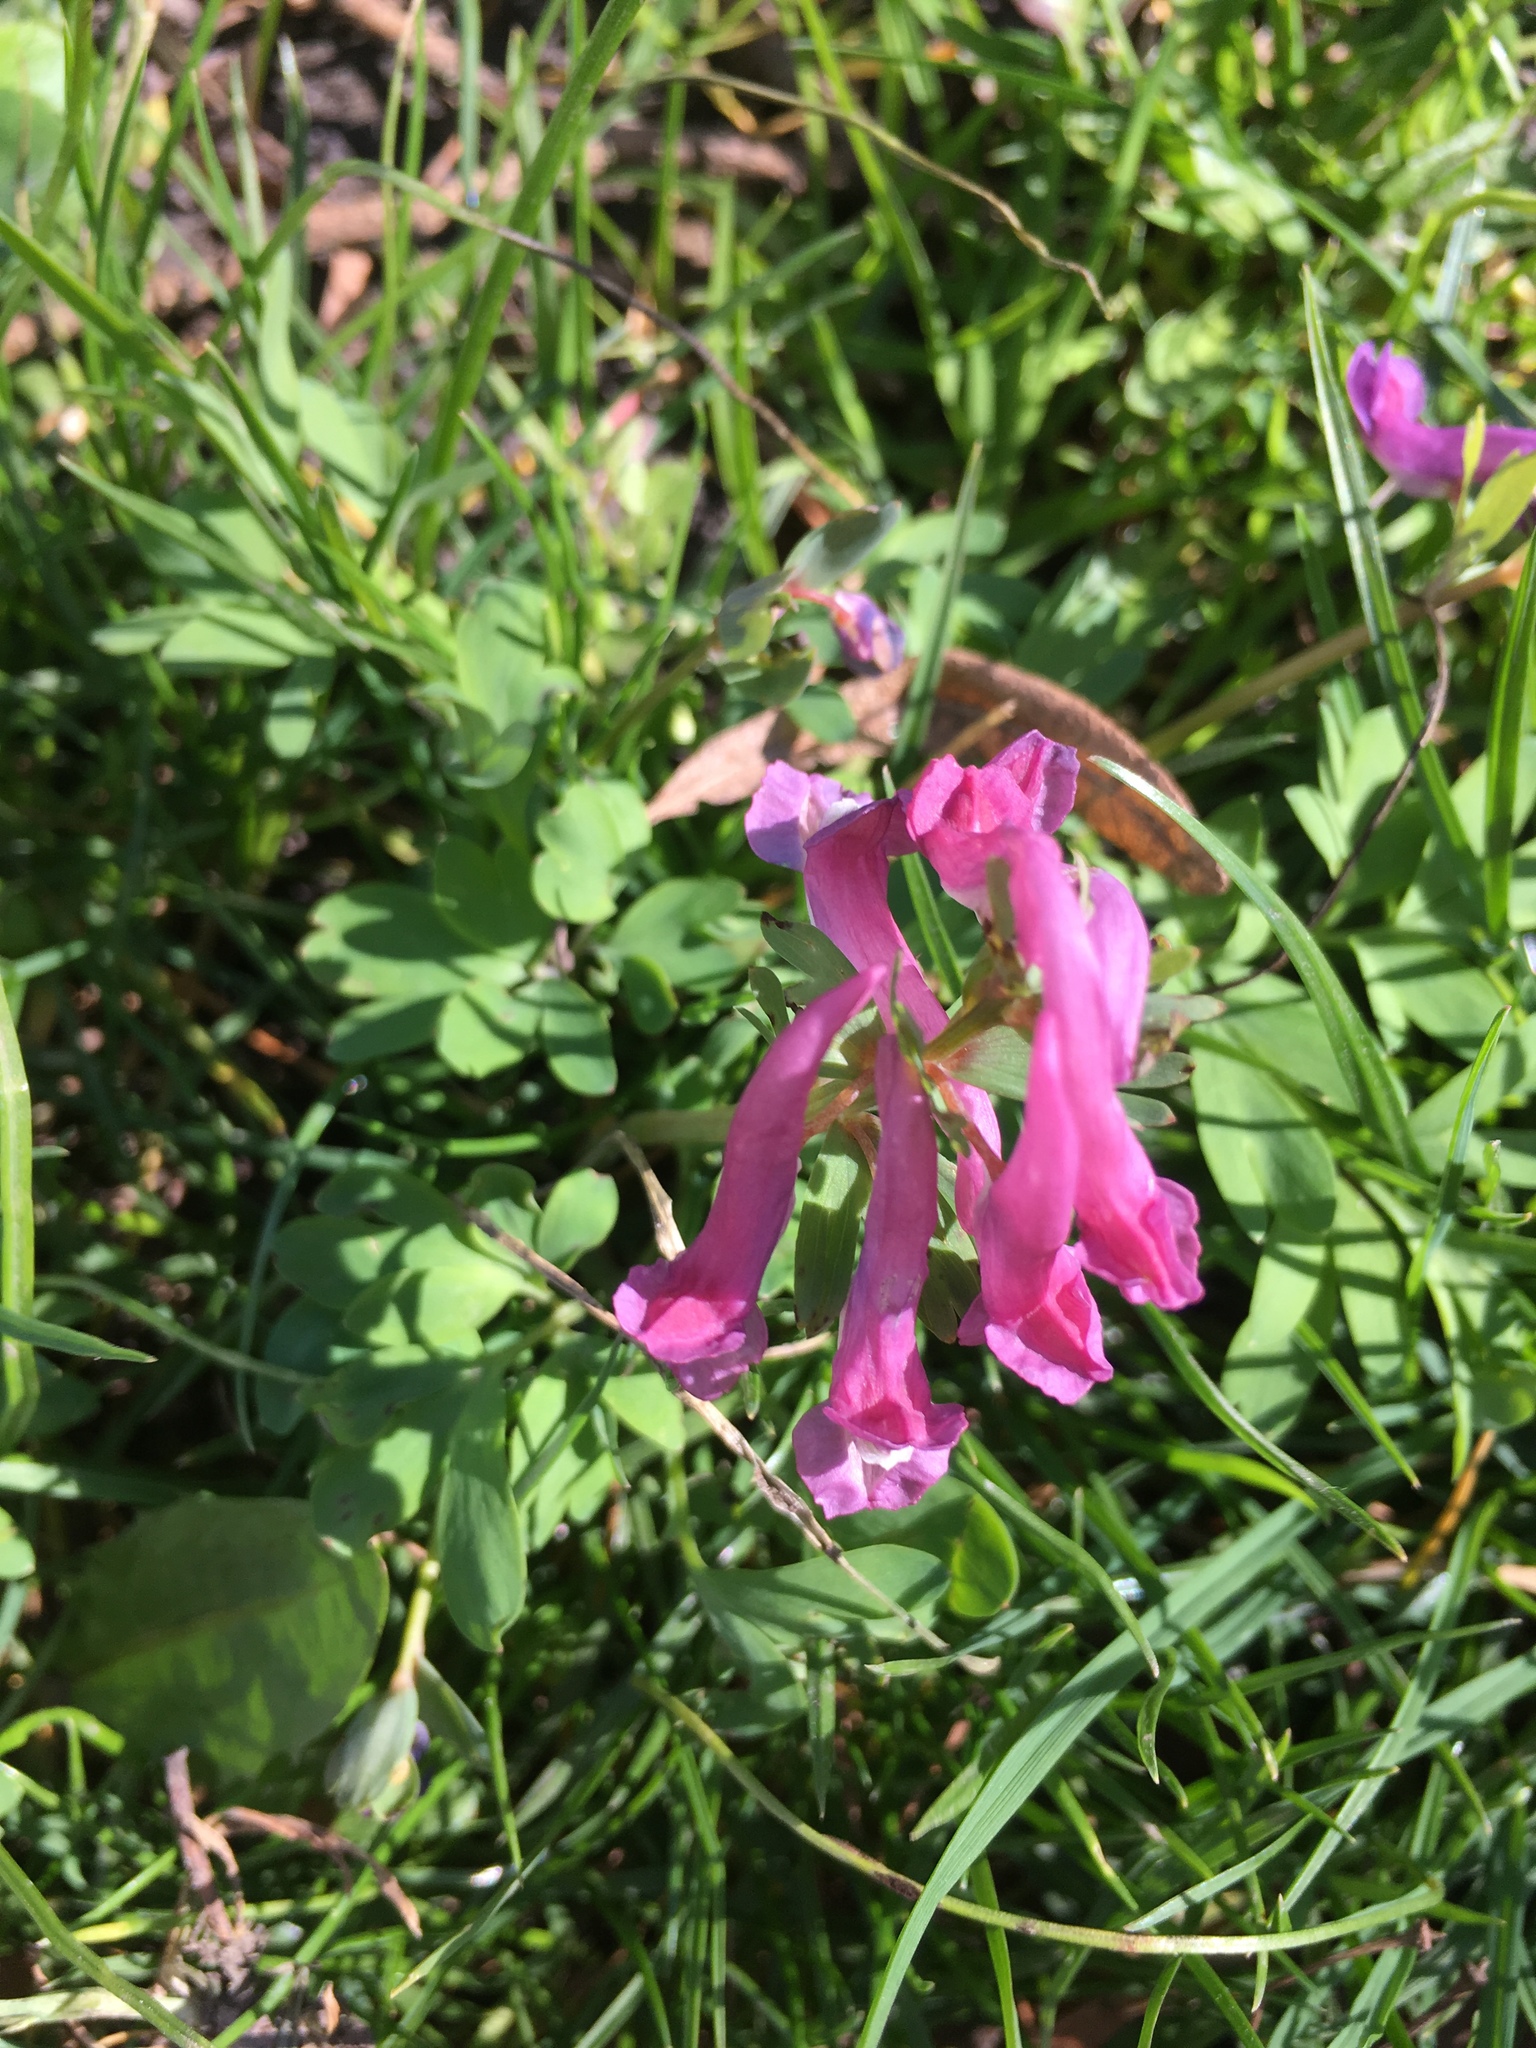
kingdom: Plantae
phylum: Tracheophyta
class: Magnoliopsida
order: Ranunculales
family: Papaveraceae
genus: Corydalis
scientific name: Corydalis solida
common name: Bird-in-a-bush
